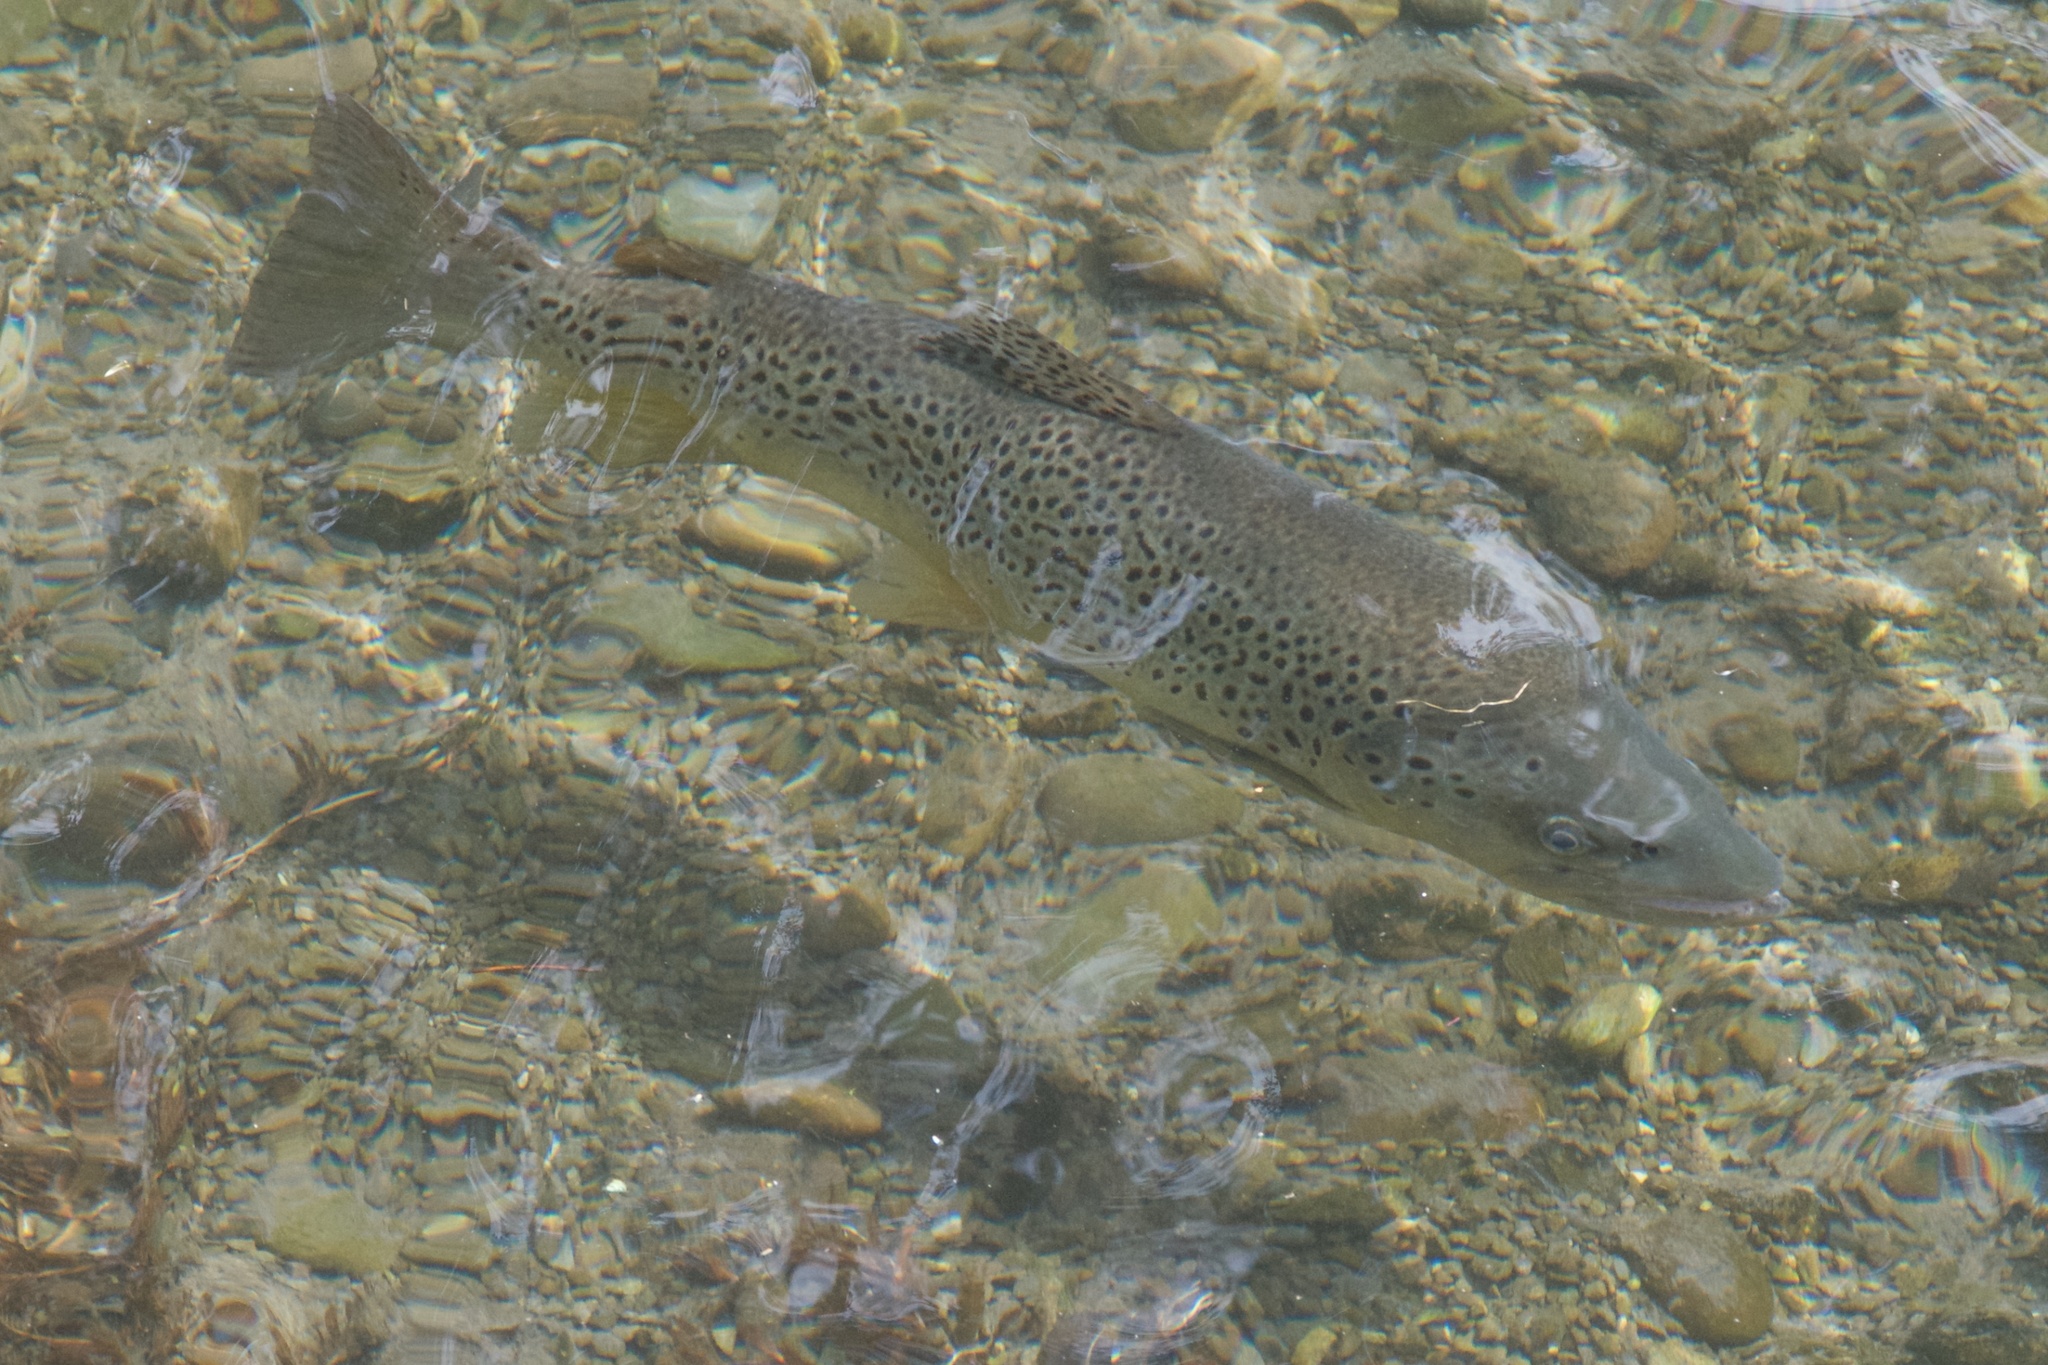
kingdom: Animalia
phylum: Chordata
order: Salmoniformes
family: Salmonidae
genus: Salmo
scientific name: Salmo trutta
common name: Brown trout
